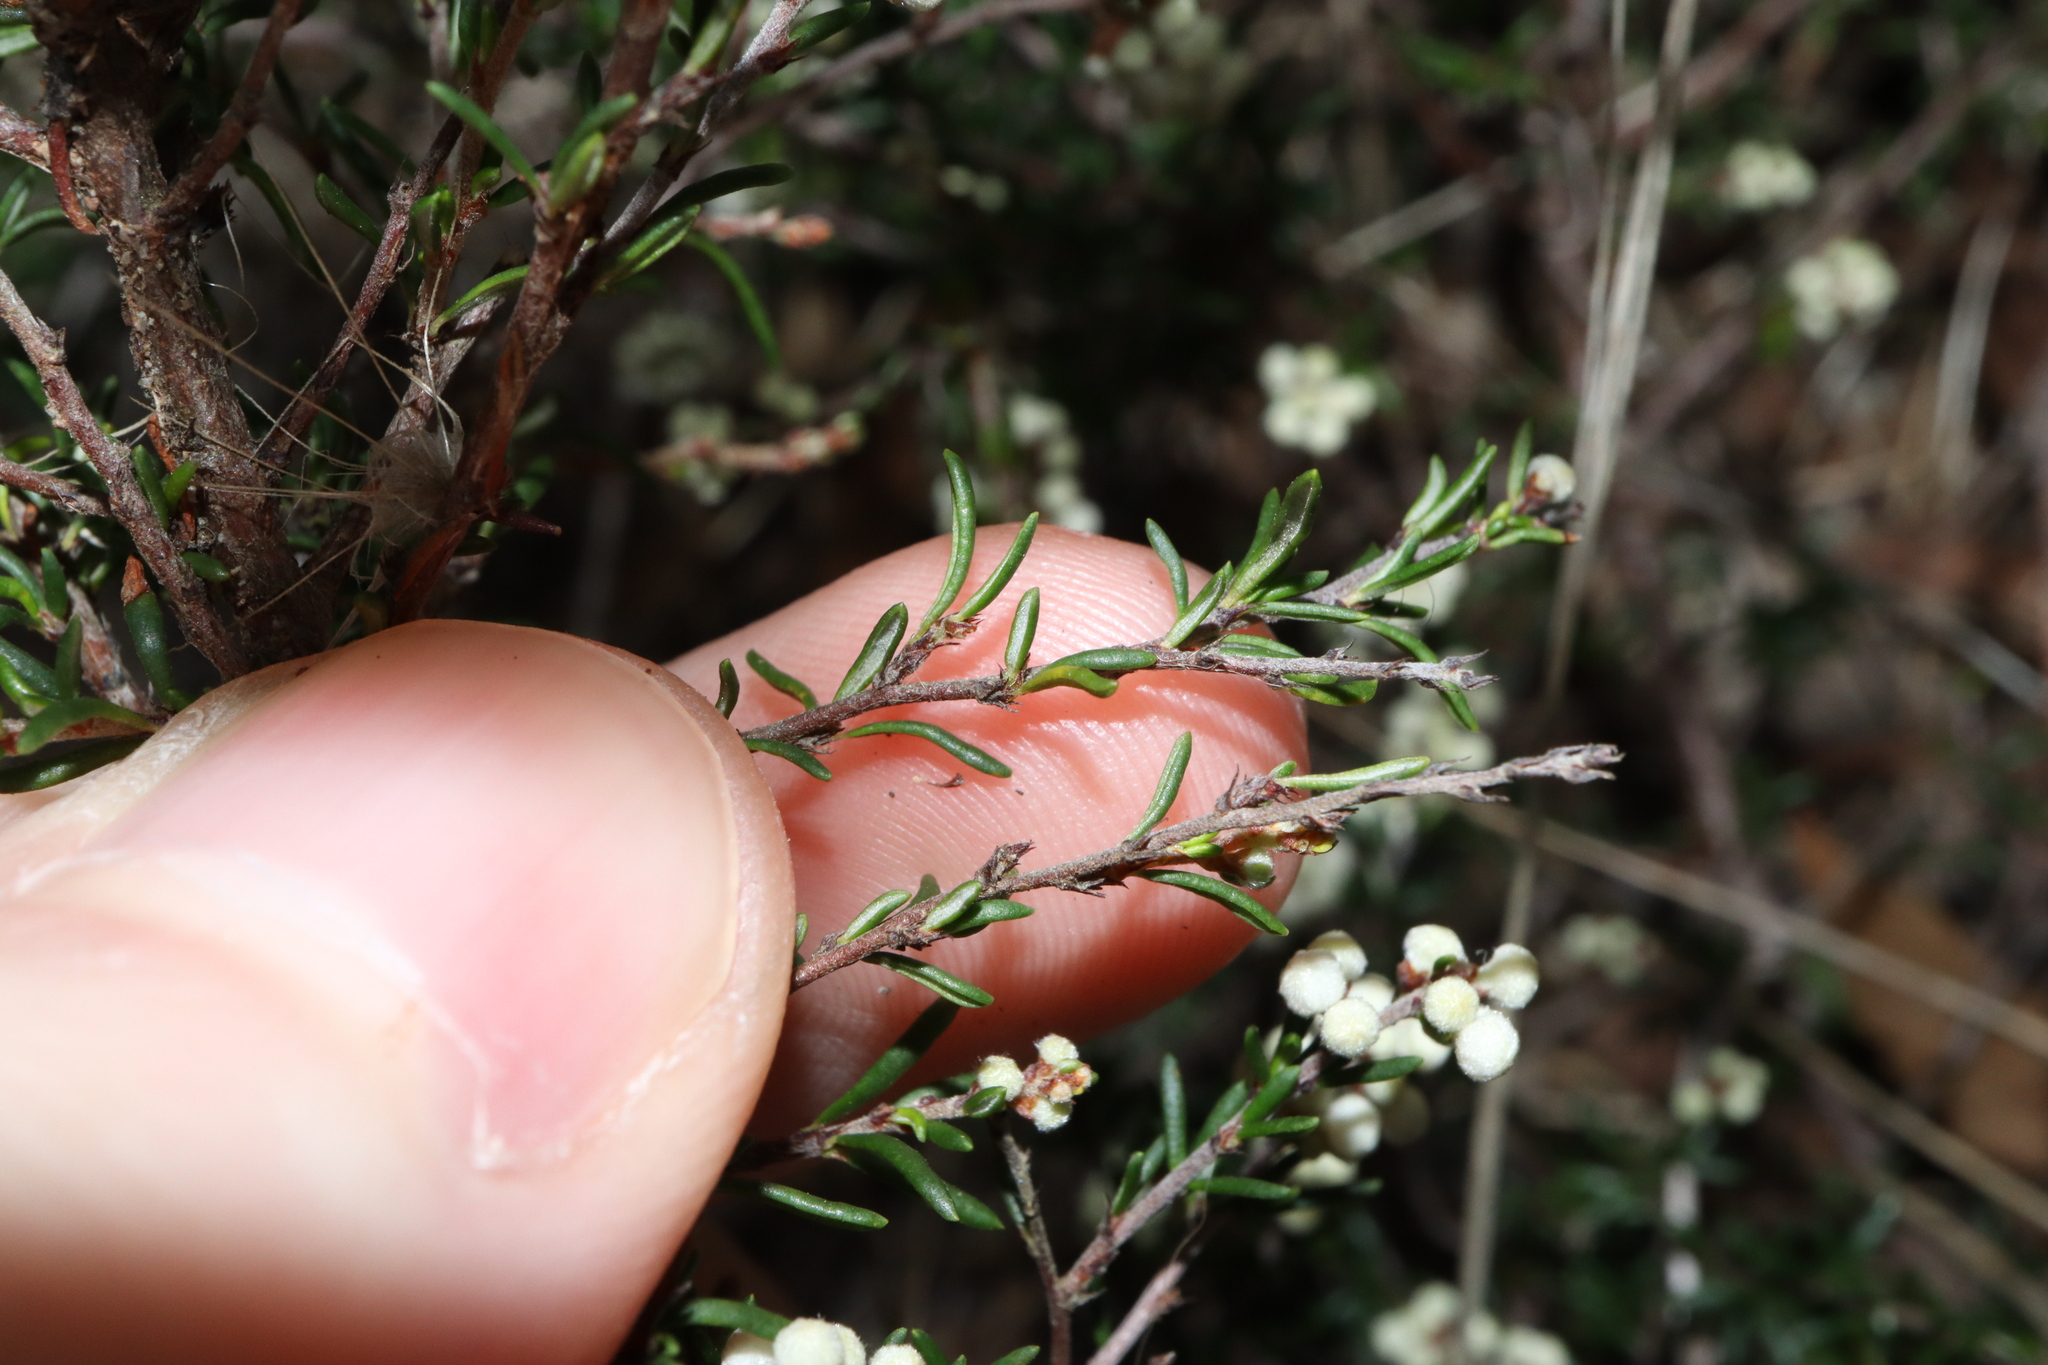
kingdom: Plantae
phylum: Tracheophyta
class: Magnoliopsida
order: Rosales
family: Rhamnaceae
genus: Cryptandra
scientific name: Cryptandra amara
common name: Bitter cryptandra
